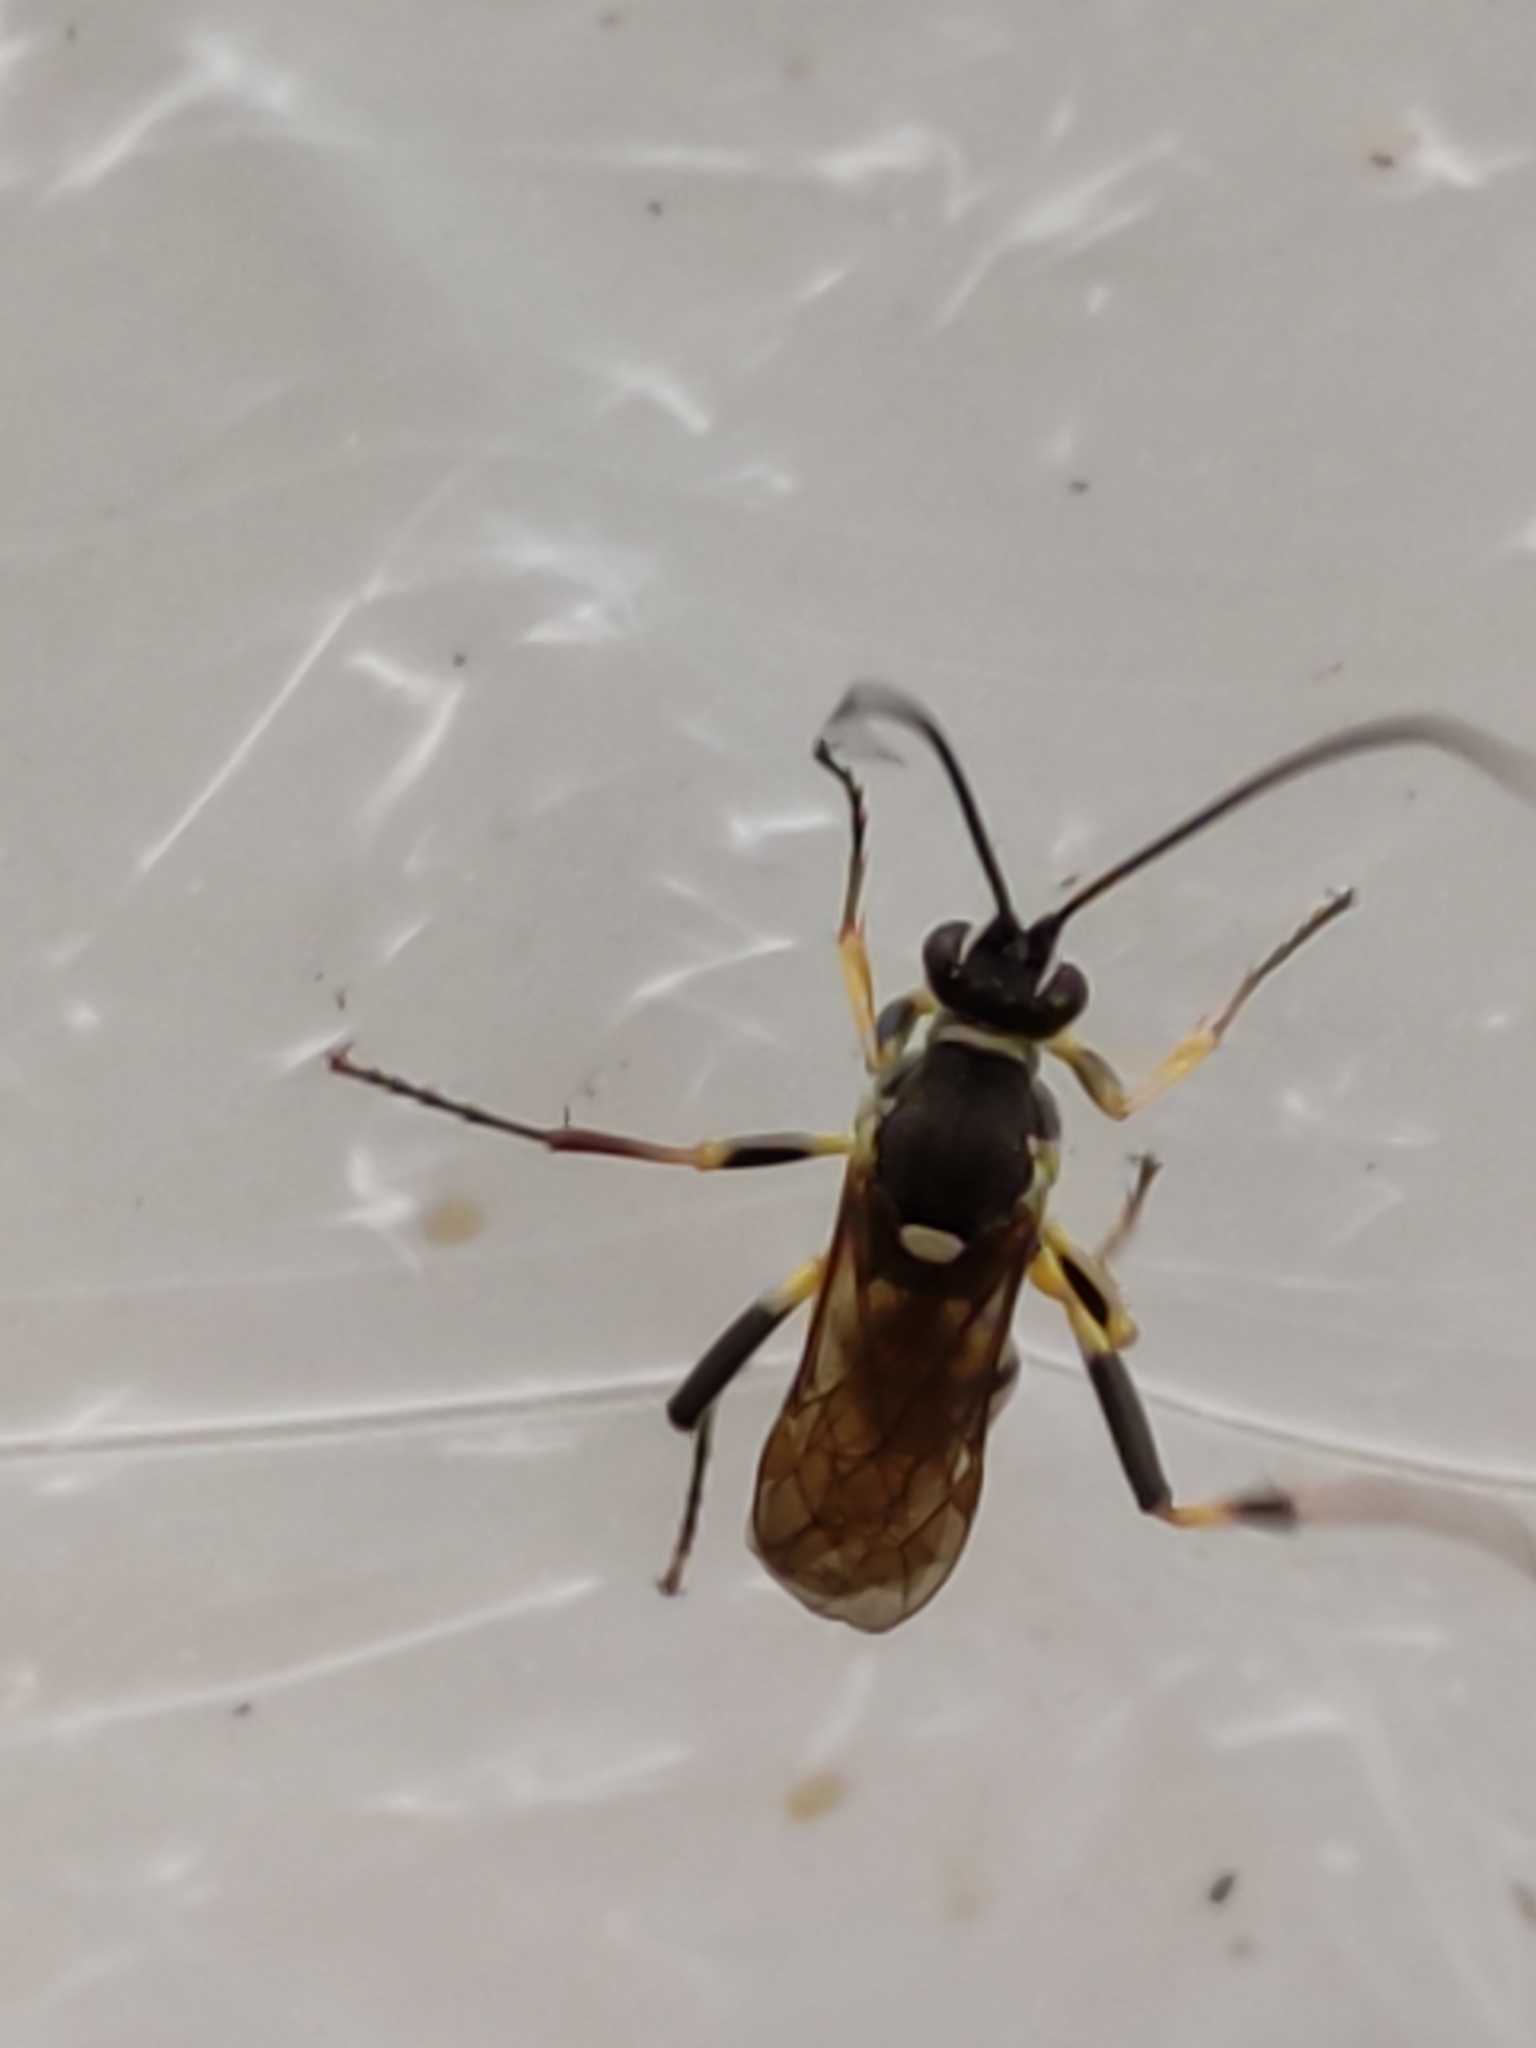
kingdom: Animalia
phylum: Arthropoda
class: Insecta
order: Hymenoptera
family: Ichneumonidae
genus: Amblyteles
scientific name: Amblyteles armatorius
